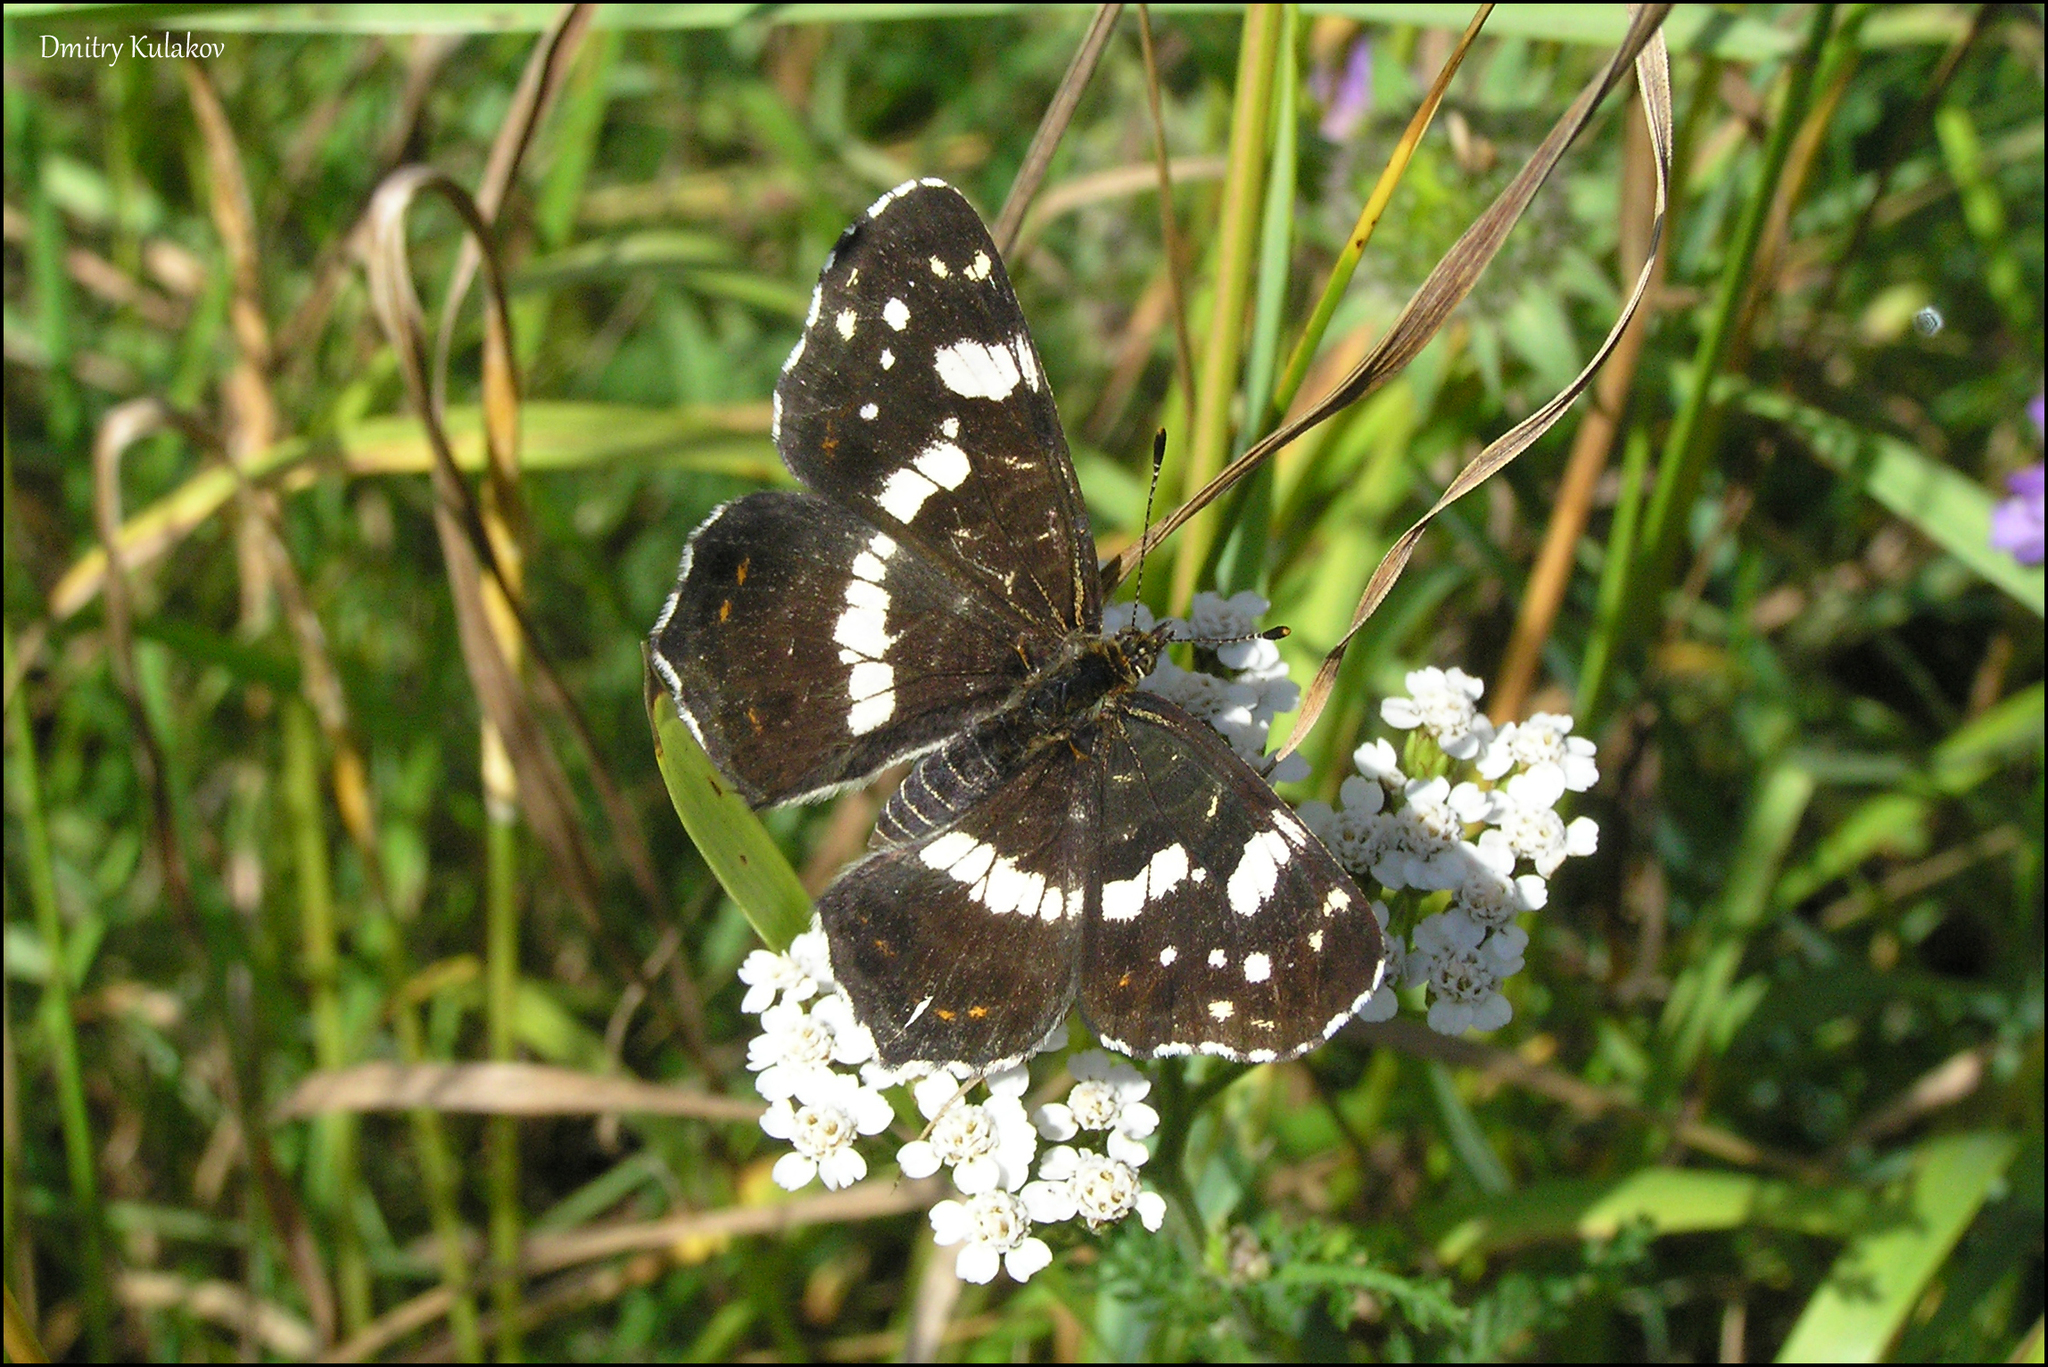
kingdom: Animalia
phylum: Arthropoda
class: Insecta
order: Lepidoptera
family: Nymphalidae
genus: Araschnia
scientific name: Araschnia levana
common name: Map butterfly
